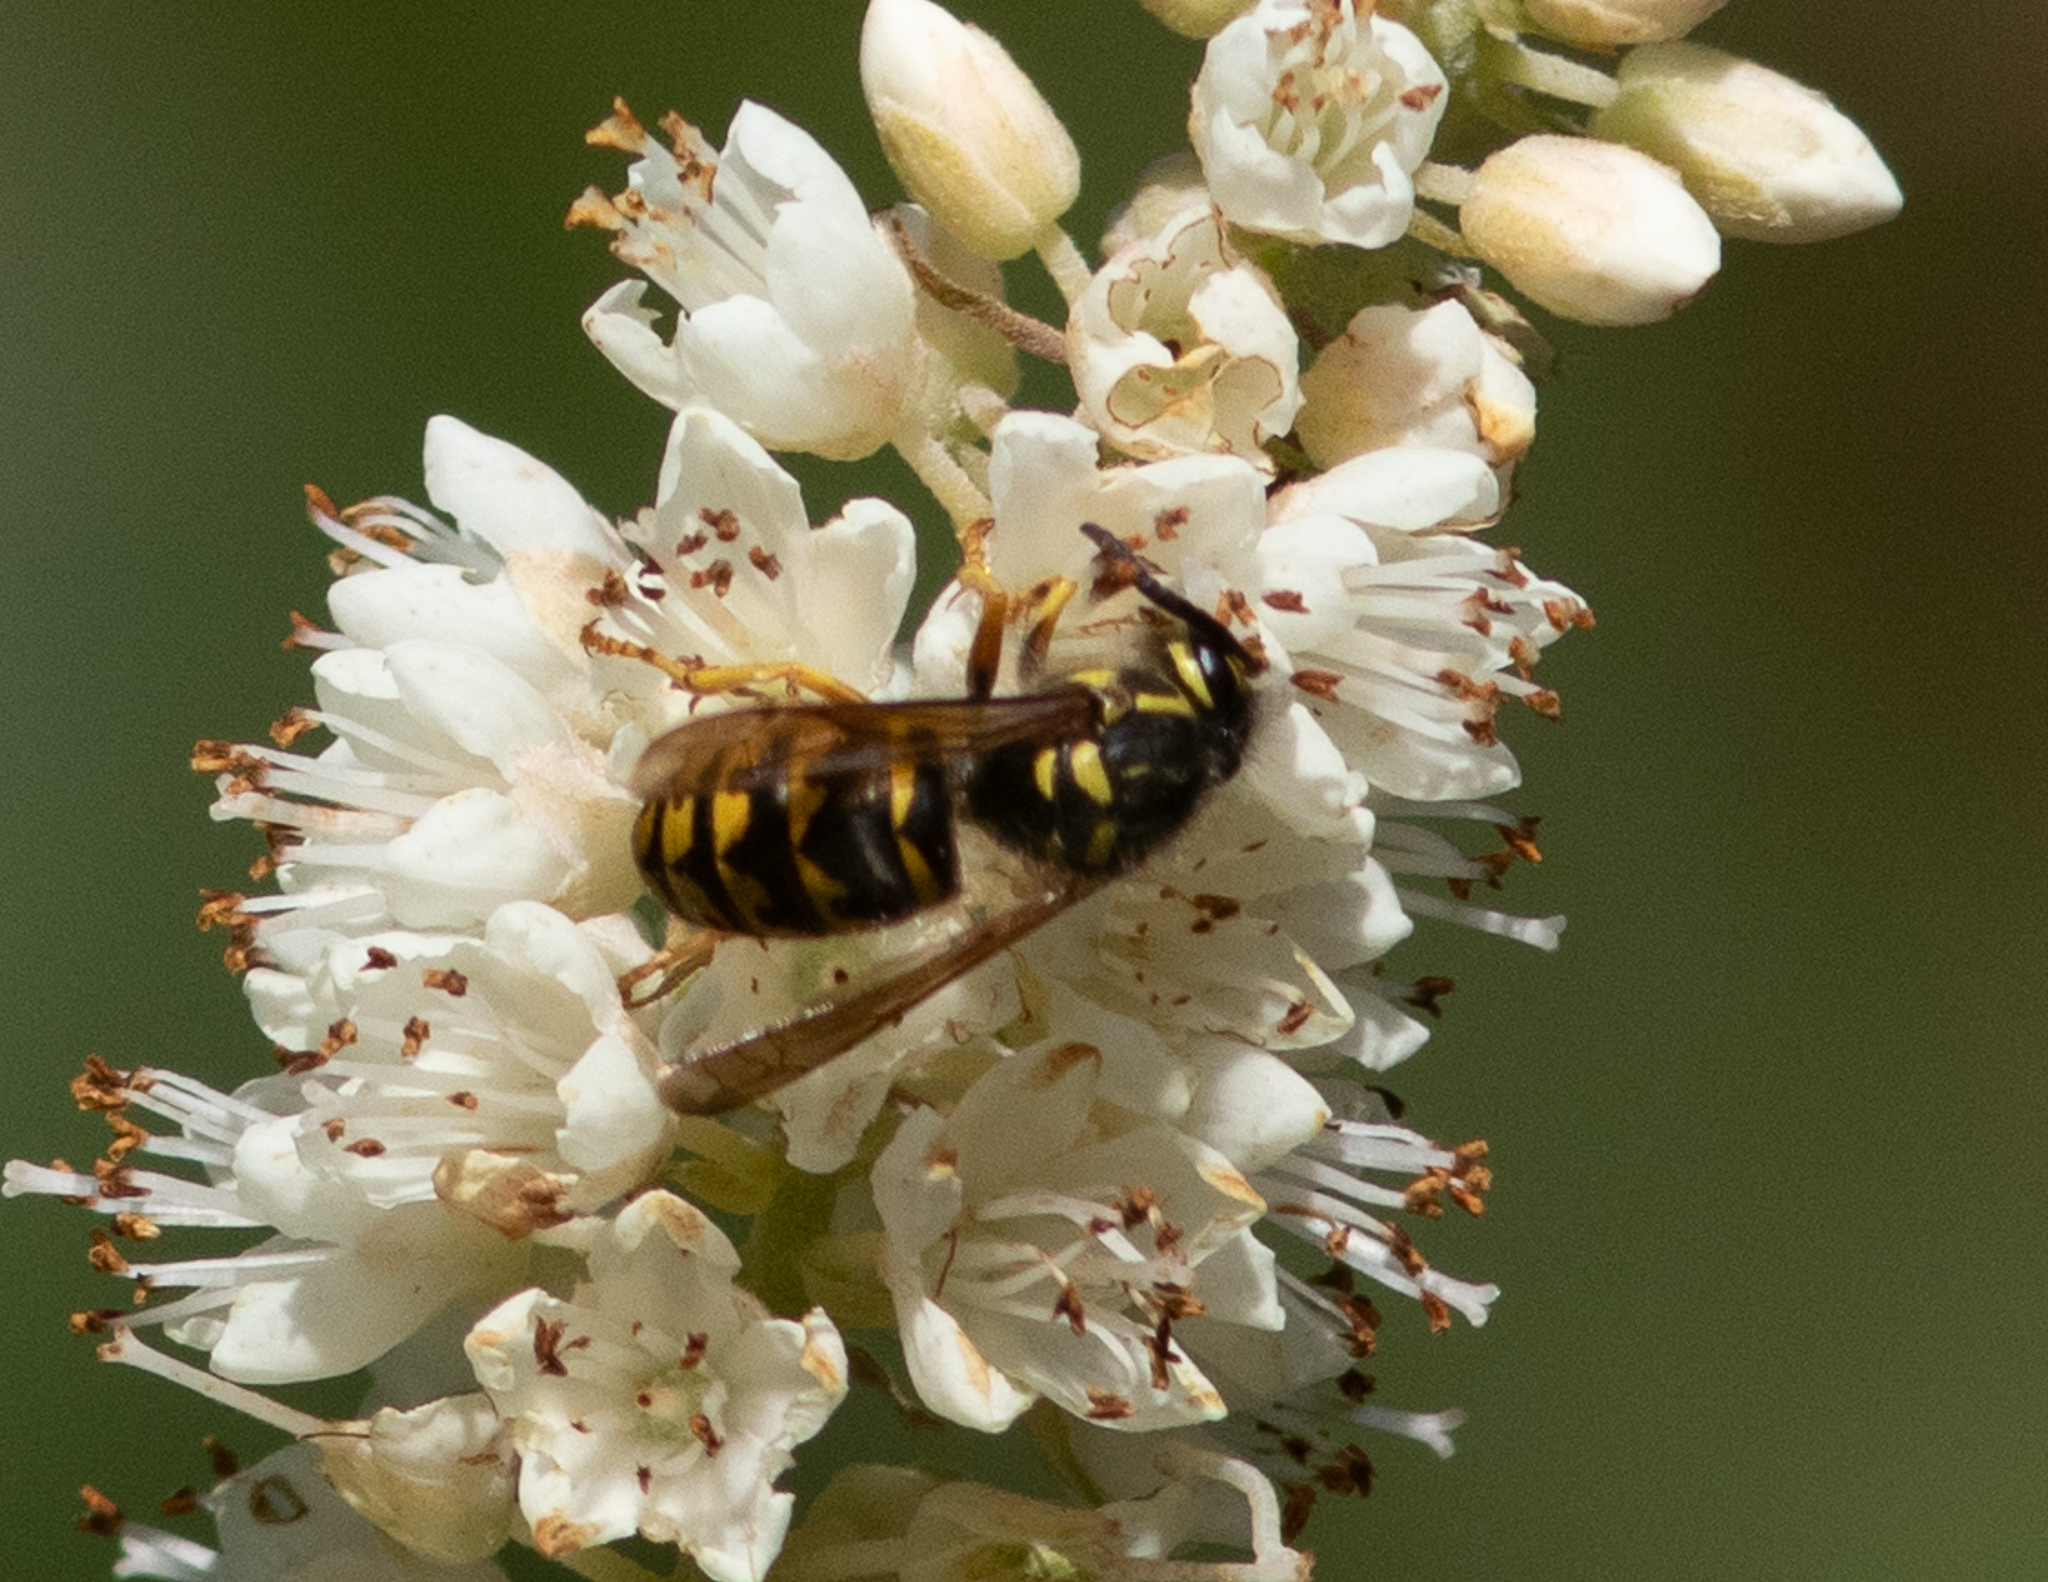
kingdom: Animalia
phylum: Arthropoda
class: Insecta
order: Hymenoptera
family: Vespidae
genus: Dolichovespula
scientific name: Dolichovespula arenaria
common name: Aerial yellowjacket
